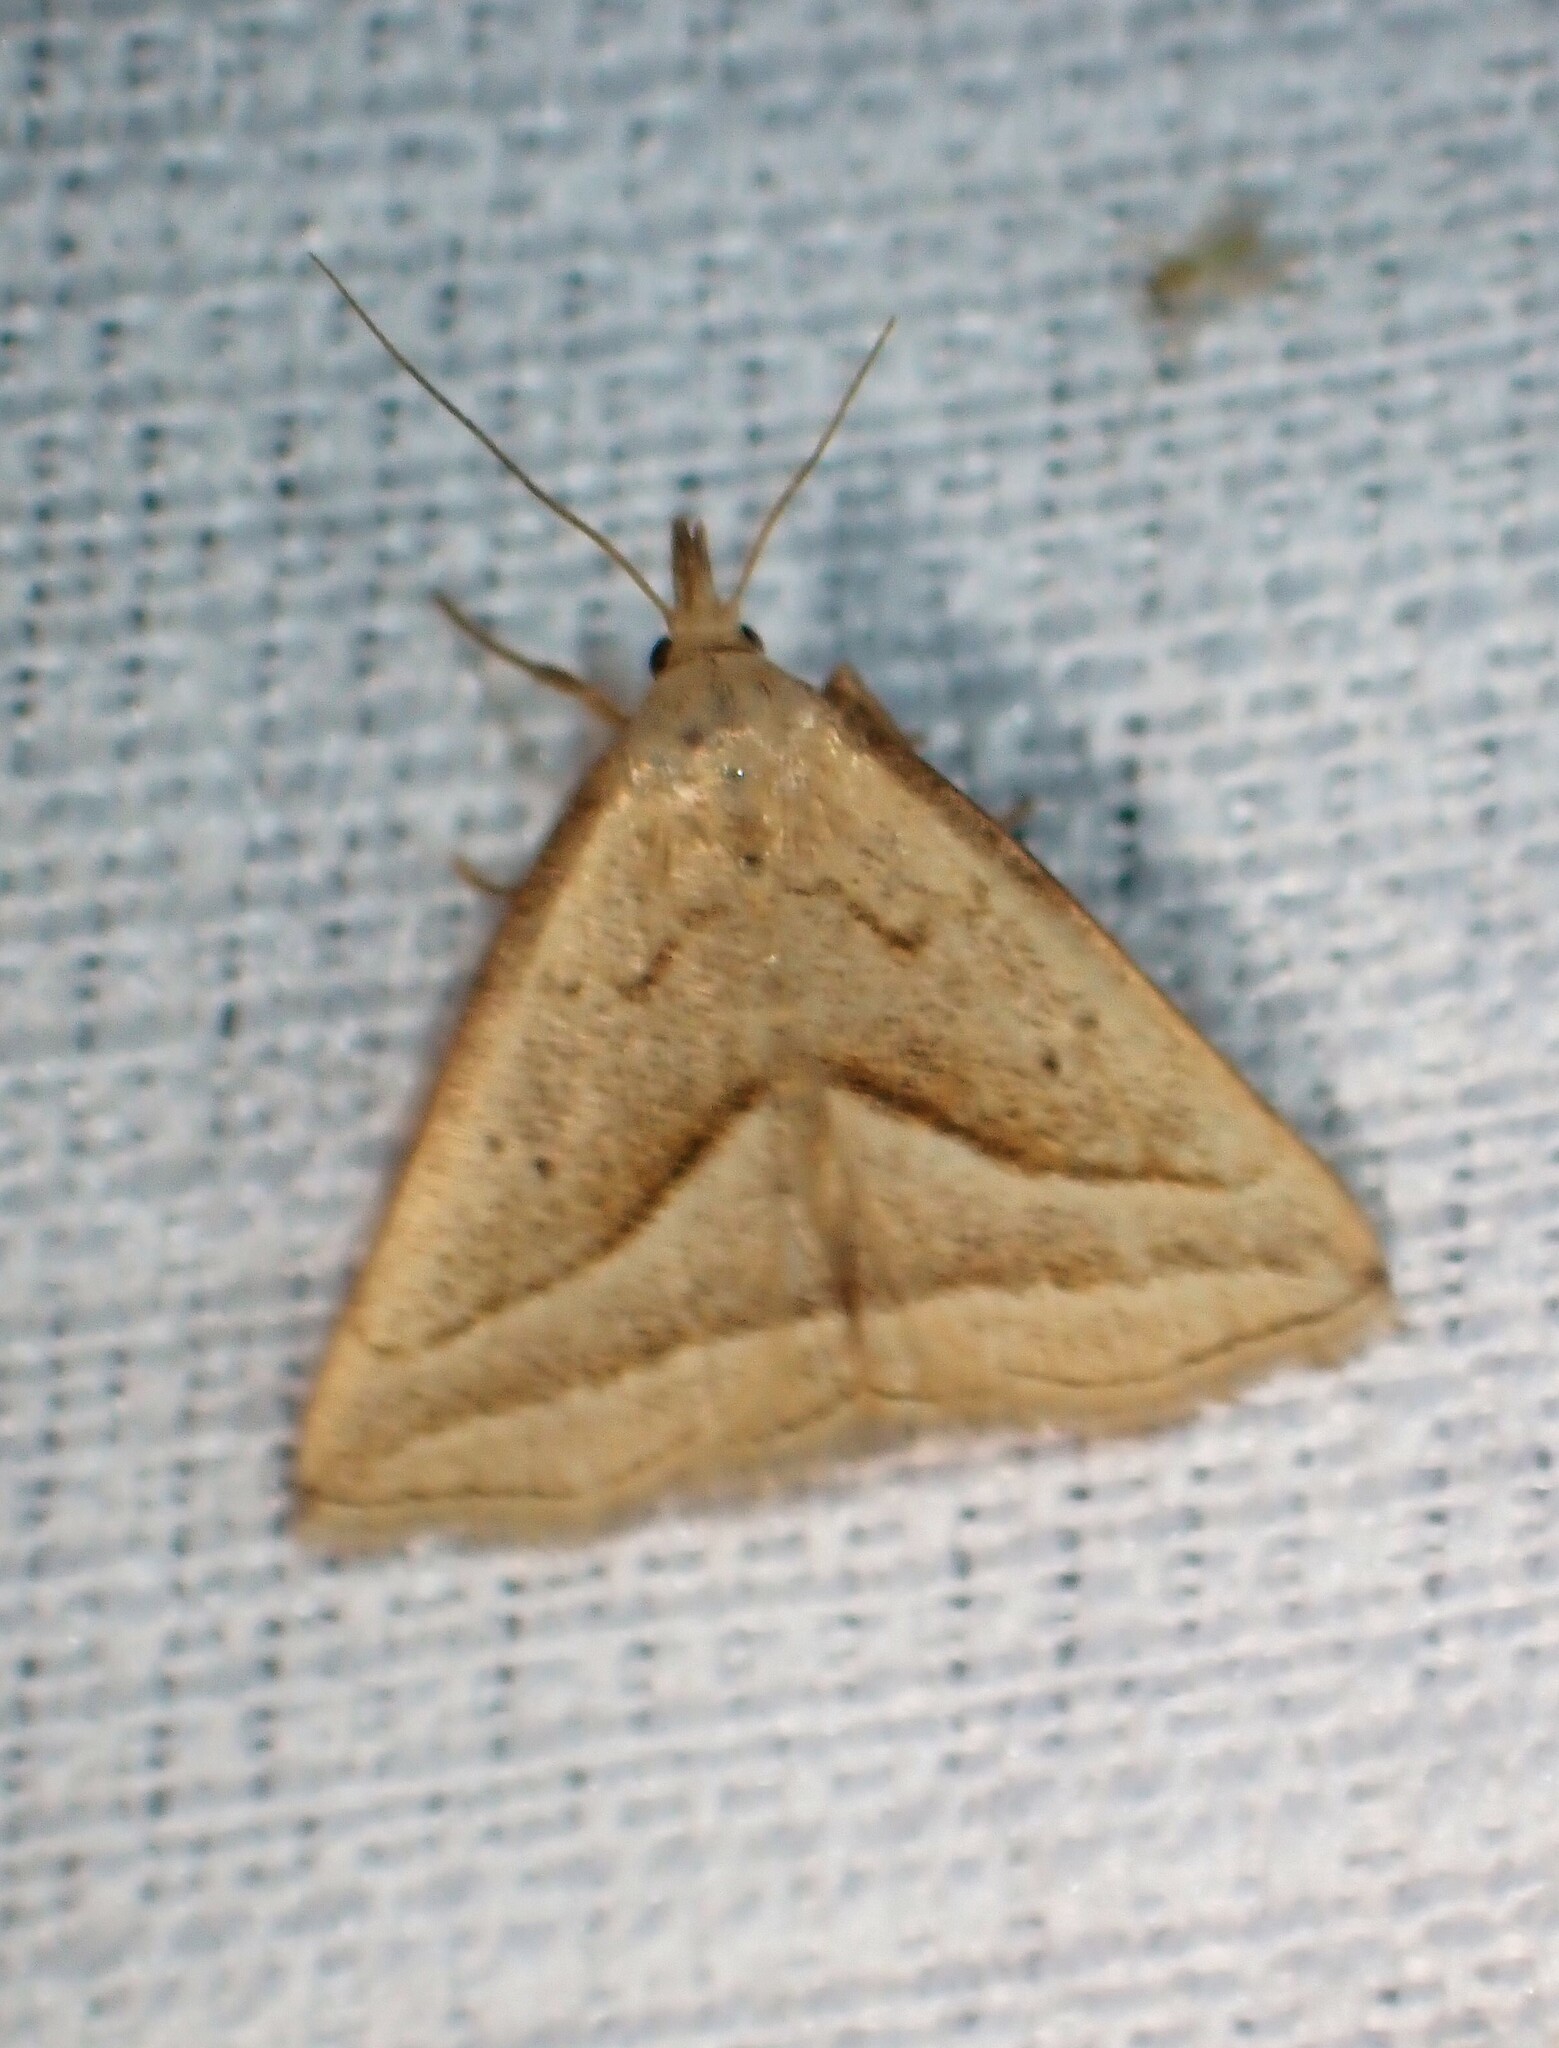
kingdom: Animalia
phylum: Arthropoda
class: Insecta
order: Lepidoptera
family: Erebidae
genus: Macrochilo
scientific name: Macrochilo absorptalis
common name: Slant-lined owlet
